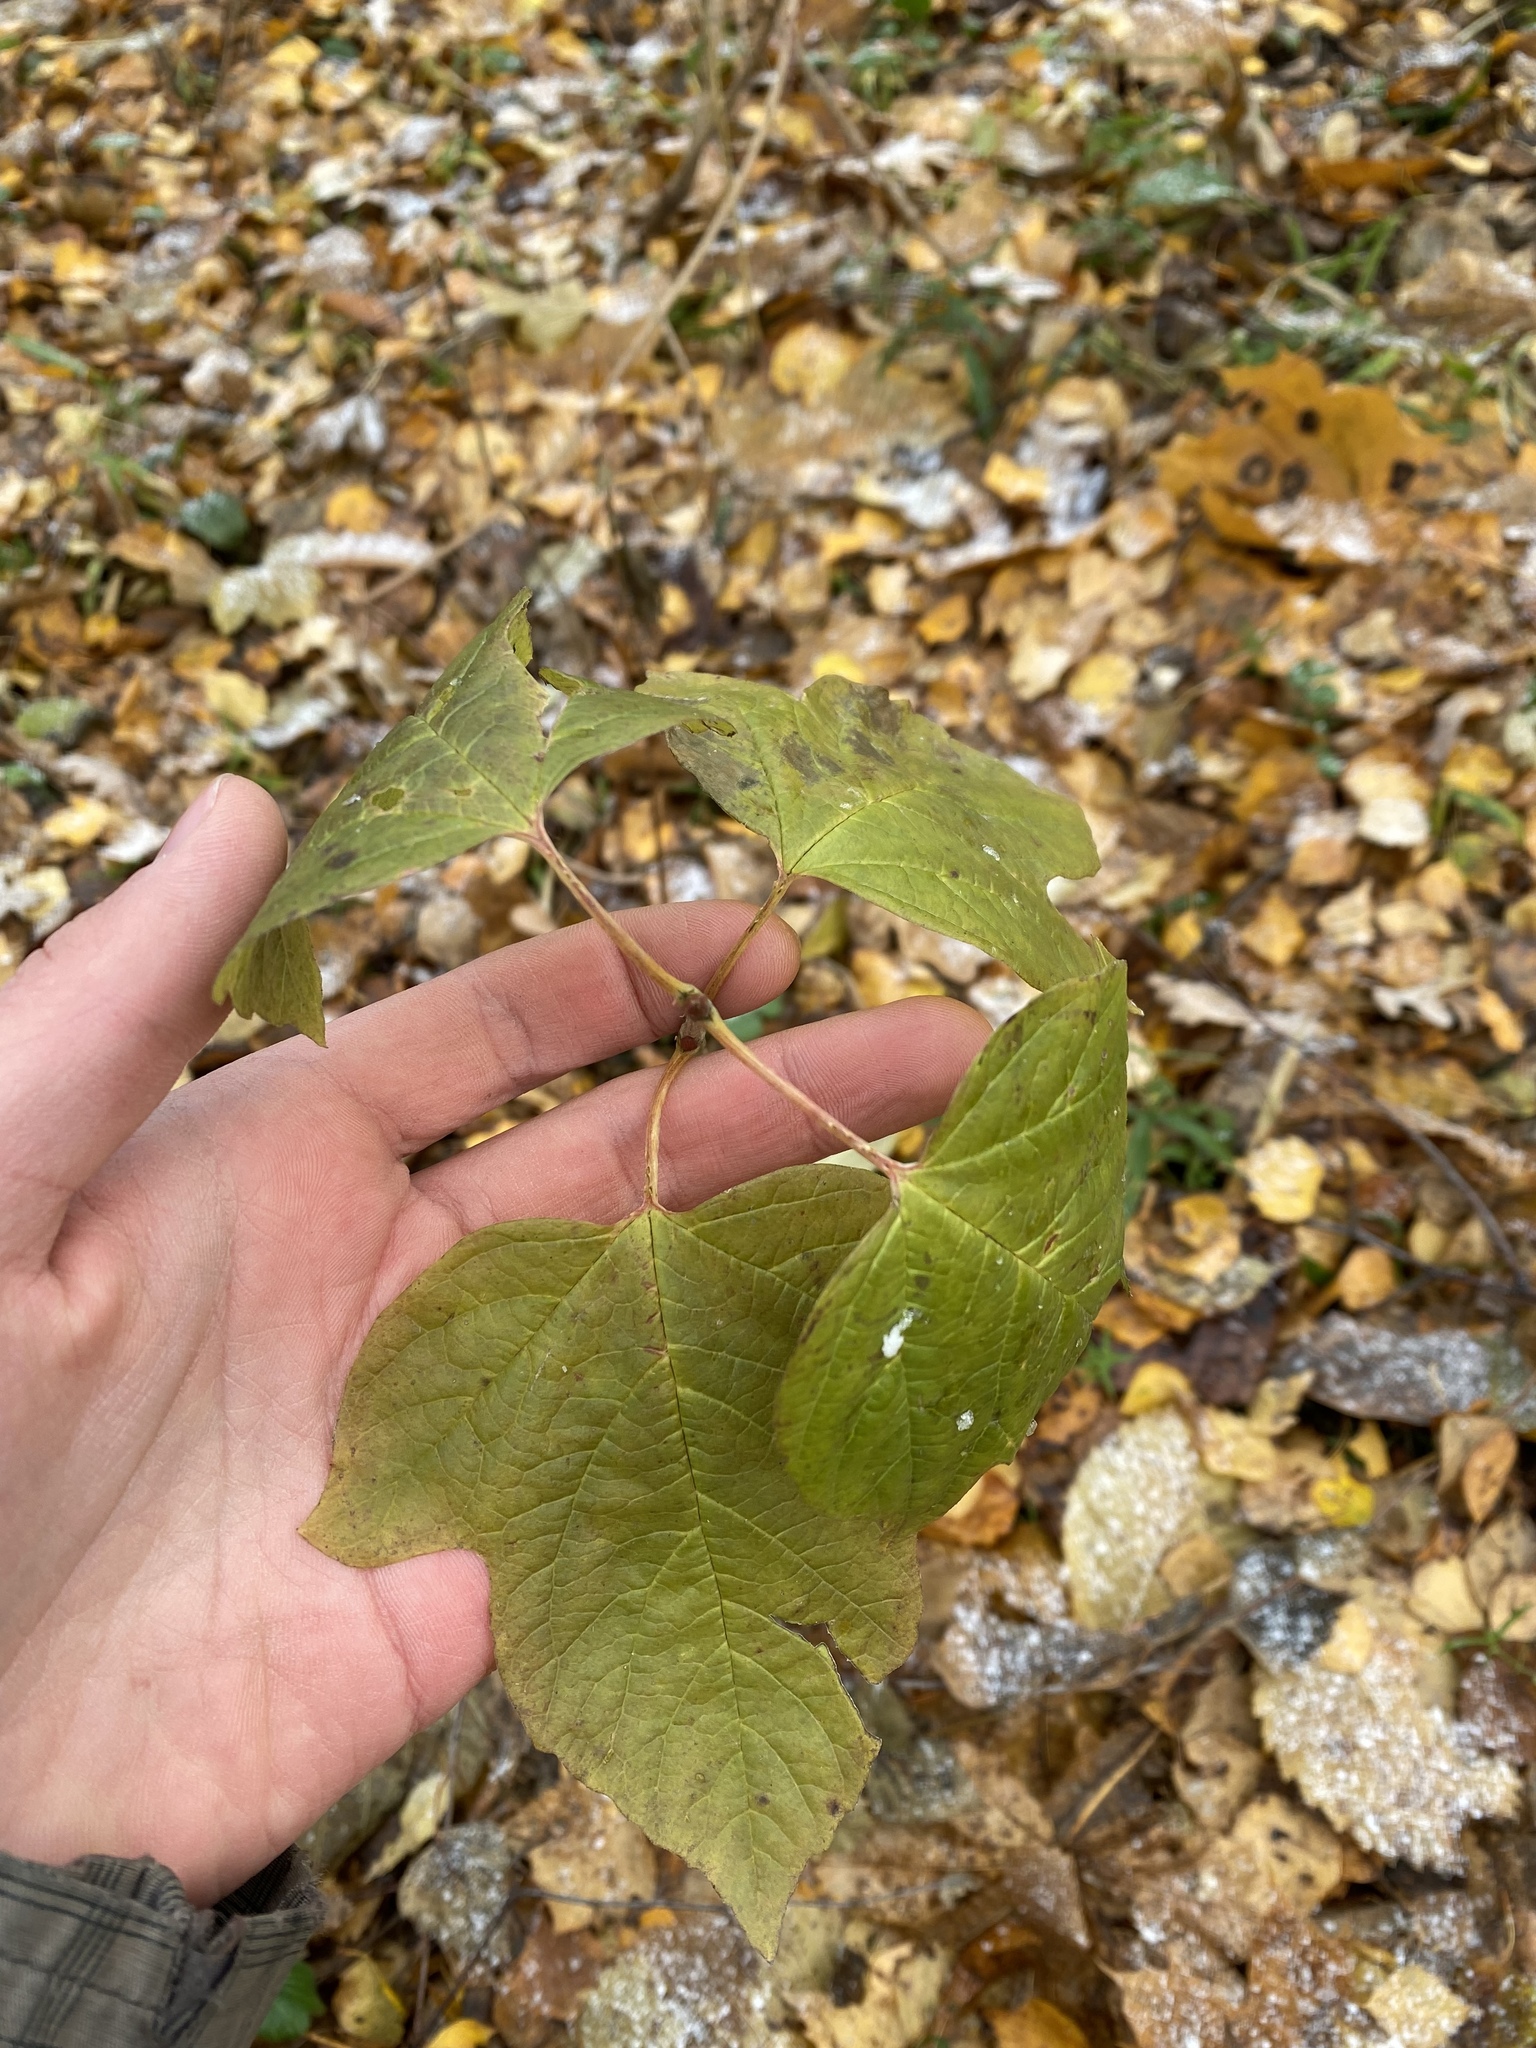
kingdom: Plantae
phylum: Tracheophyta
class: Magnoliopsida
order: Dipsacales
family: Viburnaceae
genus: Viburnum
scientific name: Viburnum opulus
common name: Guelder-rose
